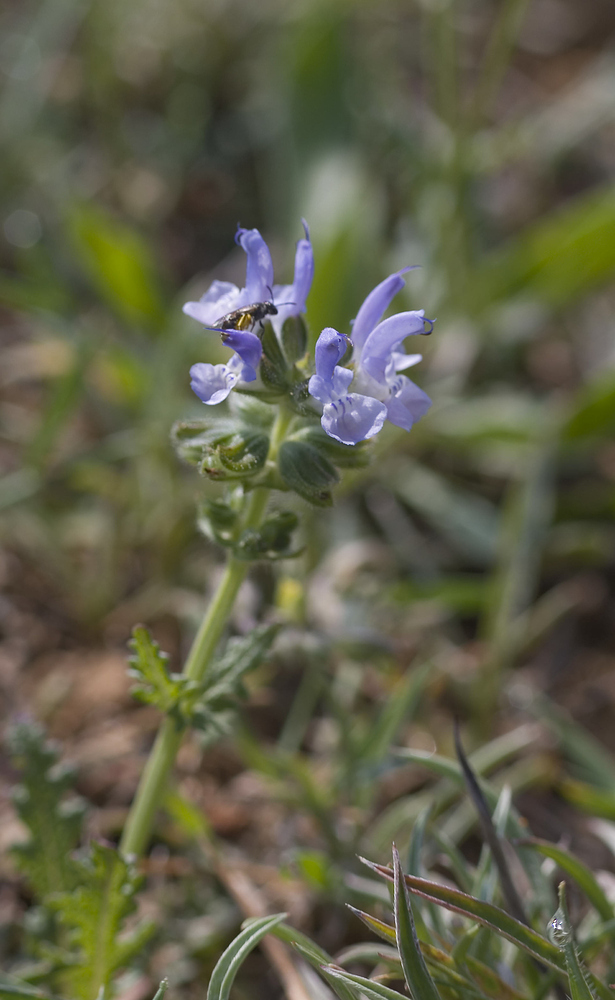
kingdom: Plantae
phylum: Tracheophyta
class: Magnoliopsida
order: Lamiales
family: Lamiaceae
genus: Salvia
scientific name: Salvia clandestina
